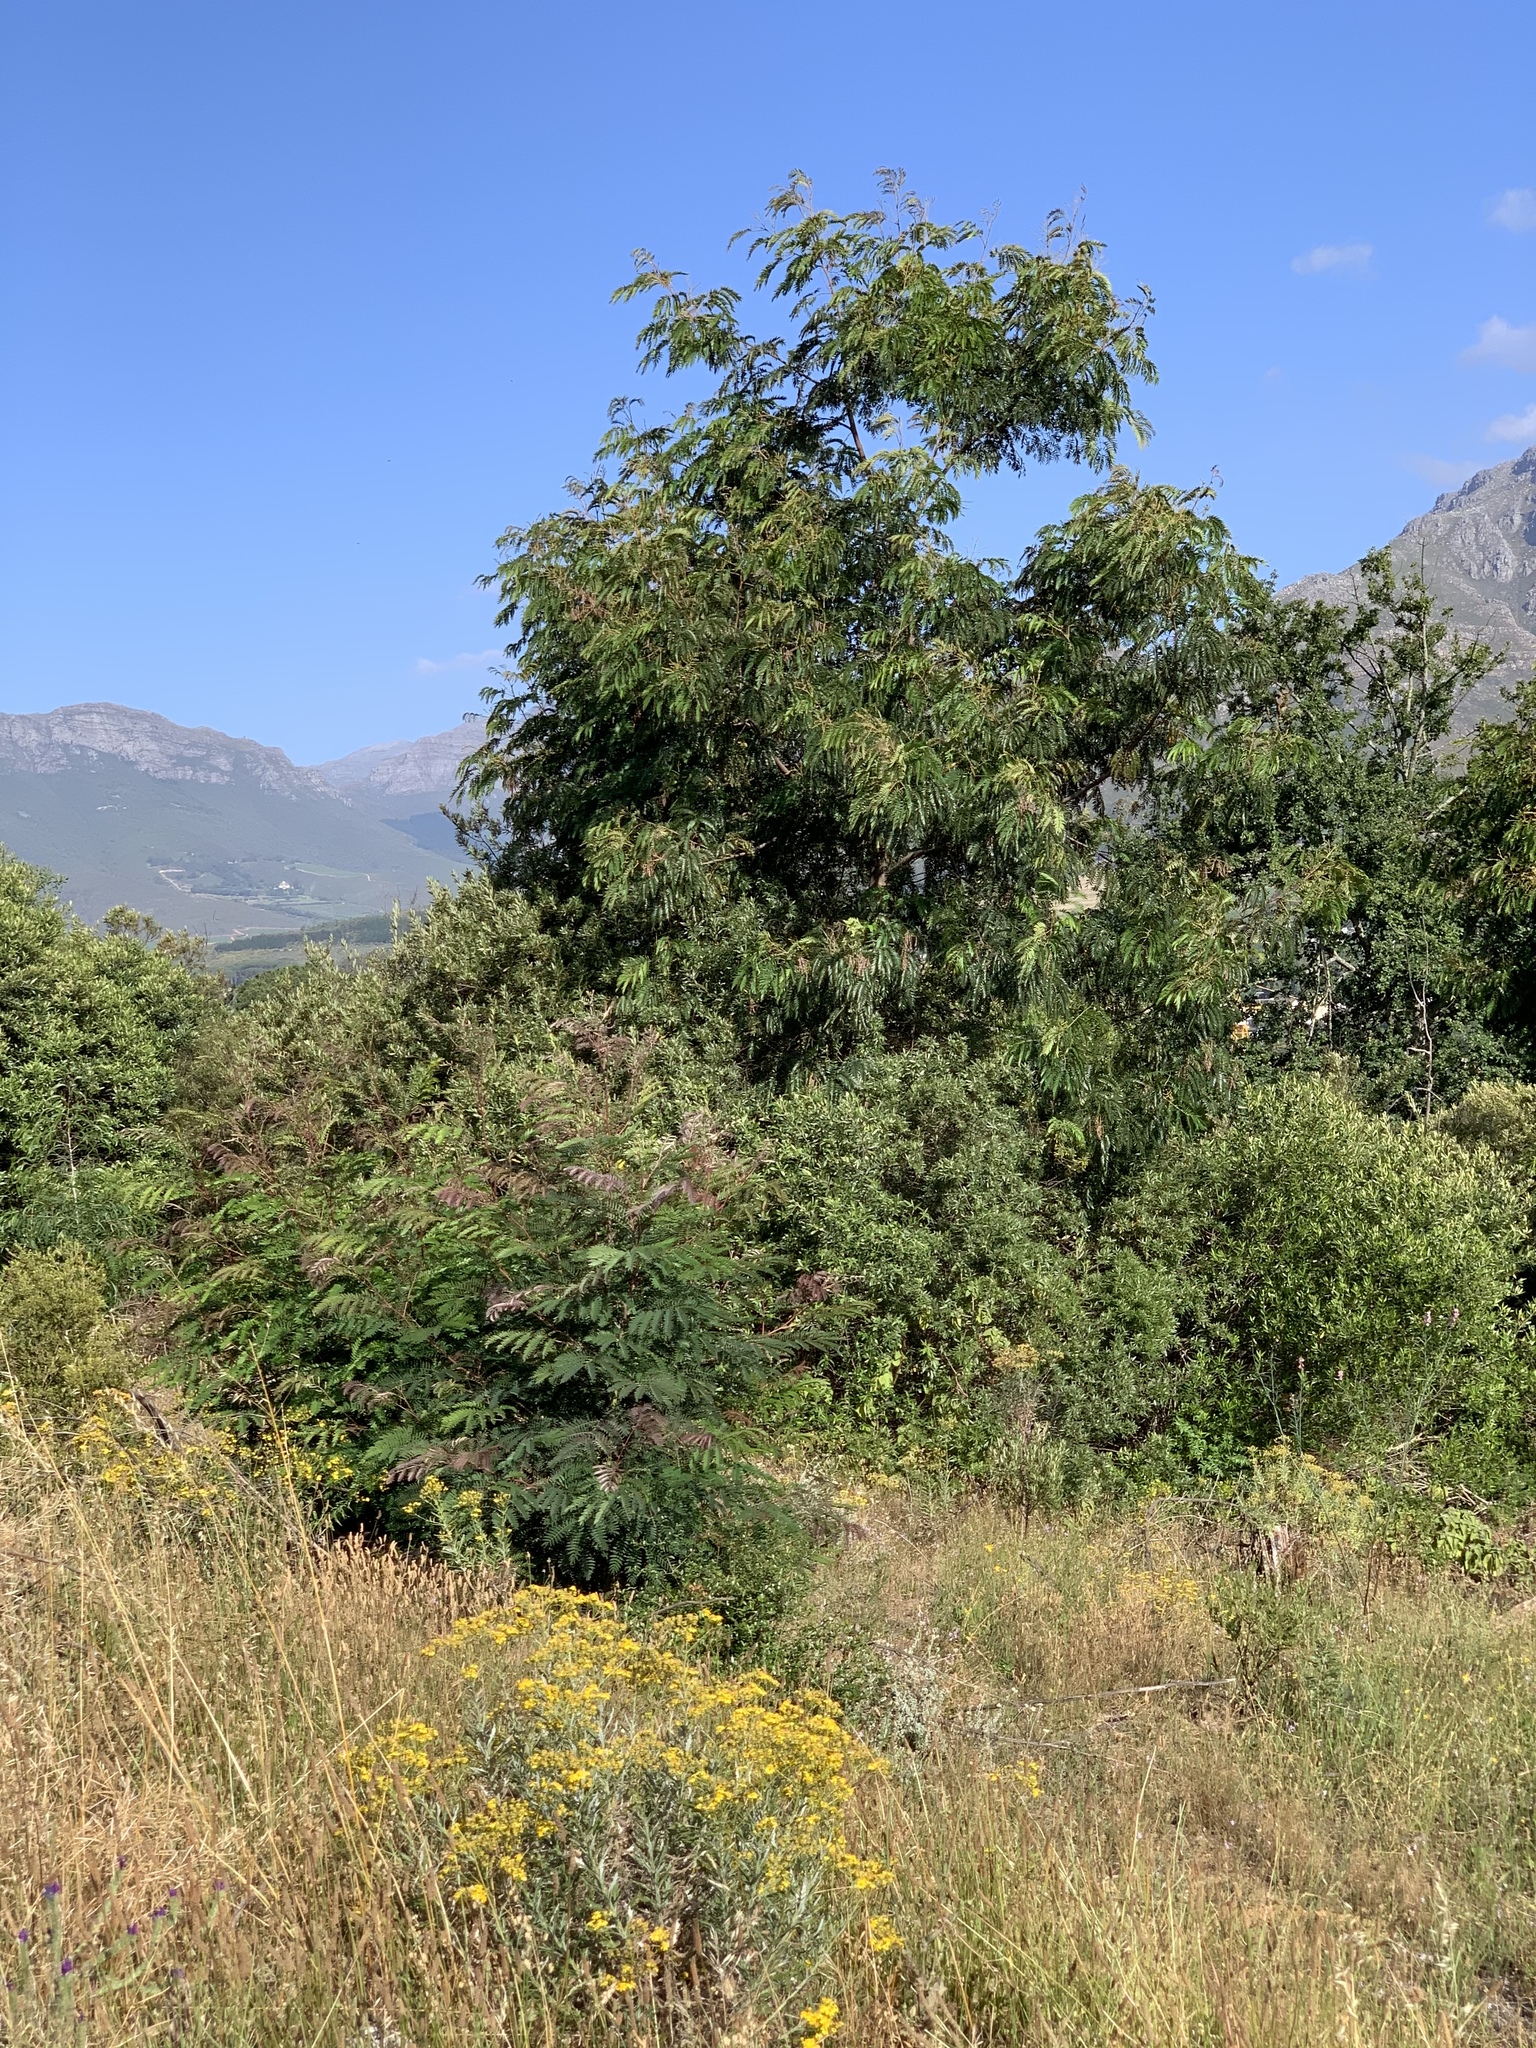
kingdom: Plantae
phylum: Tracheophyta
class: Magnoliopsida
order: Fabales
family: Fabaceae
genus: Acacia
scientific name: Acacia elata
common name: Cedar wattle
